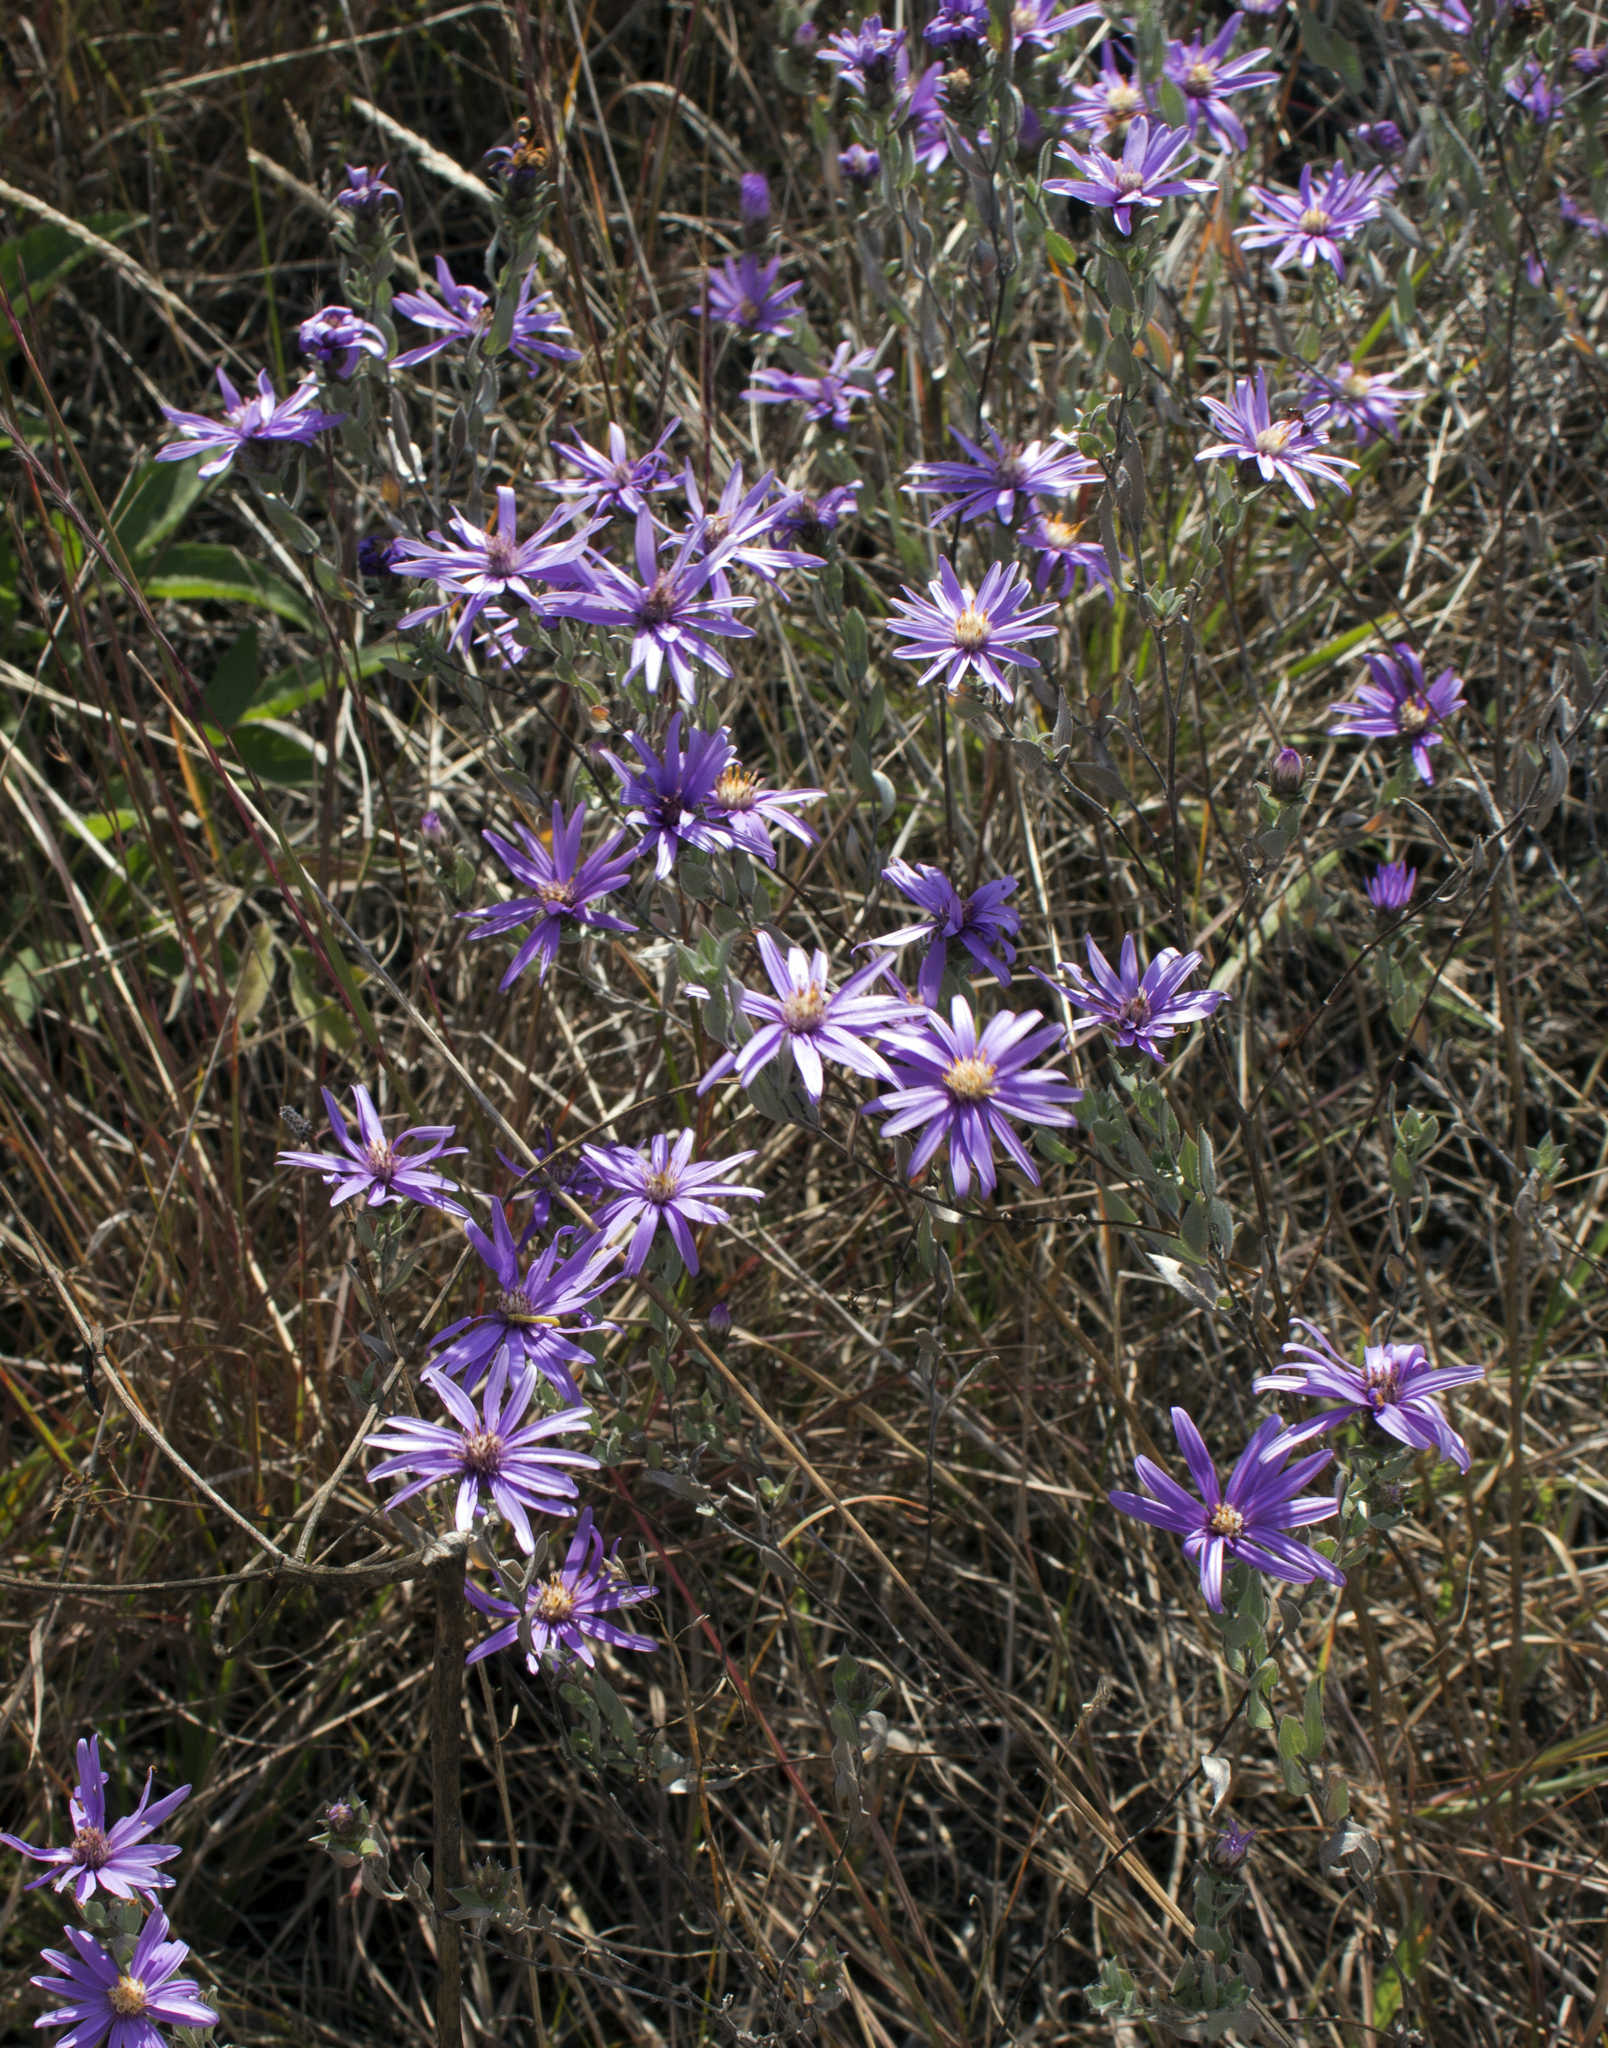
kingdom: Plantae
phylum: Tracheophyta
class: Magnoliopsida
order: Asterales
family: Asteraceae
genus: Symphyotrichum
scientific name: Symphyotrichum sericeum
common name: Silky aster
